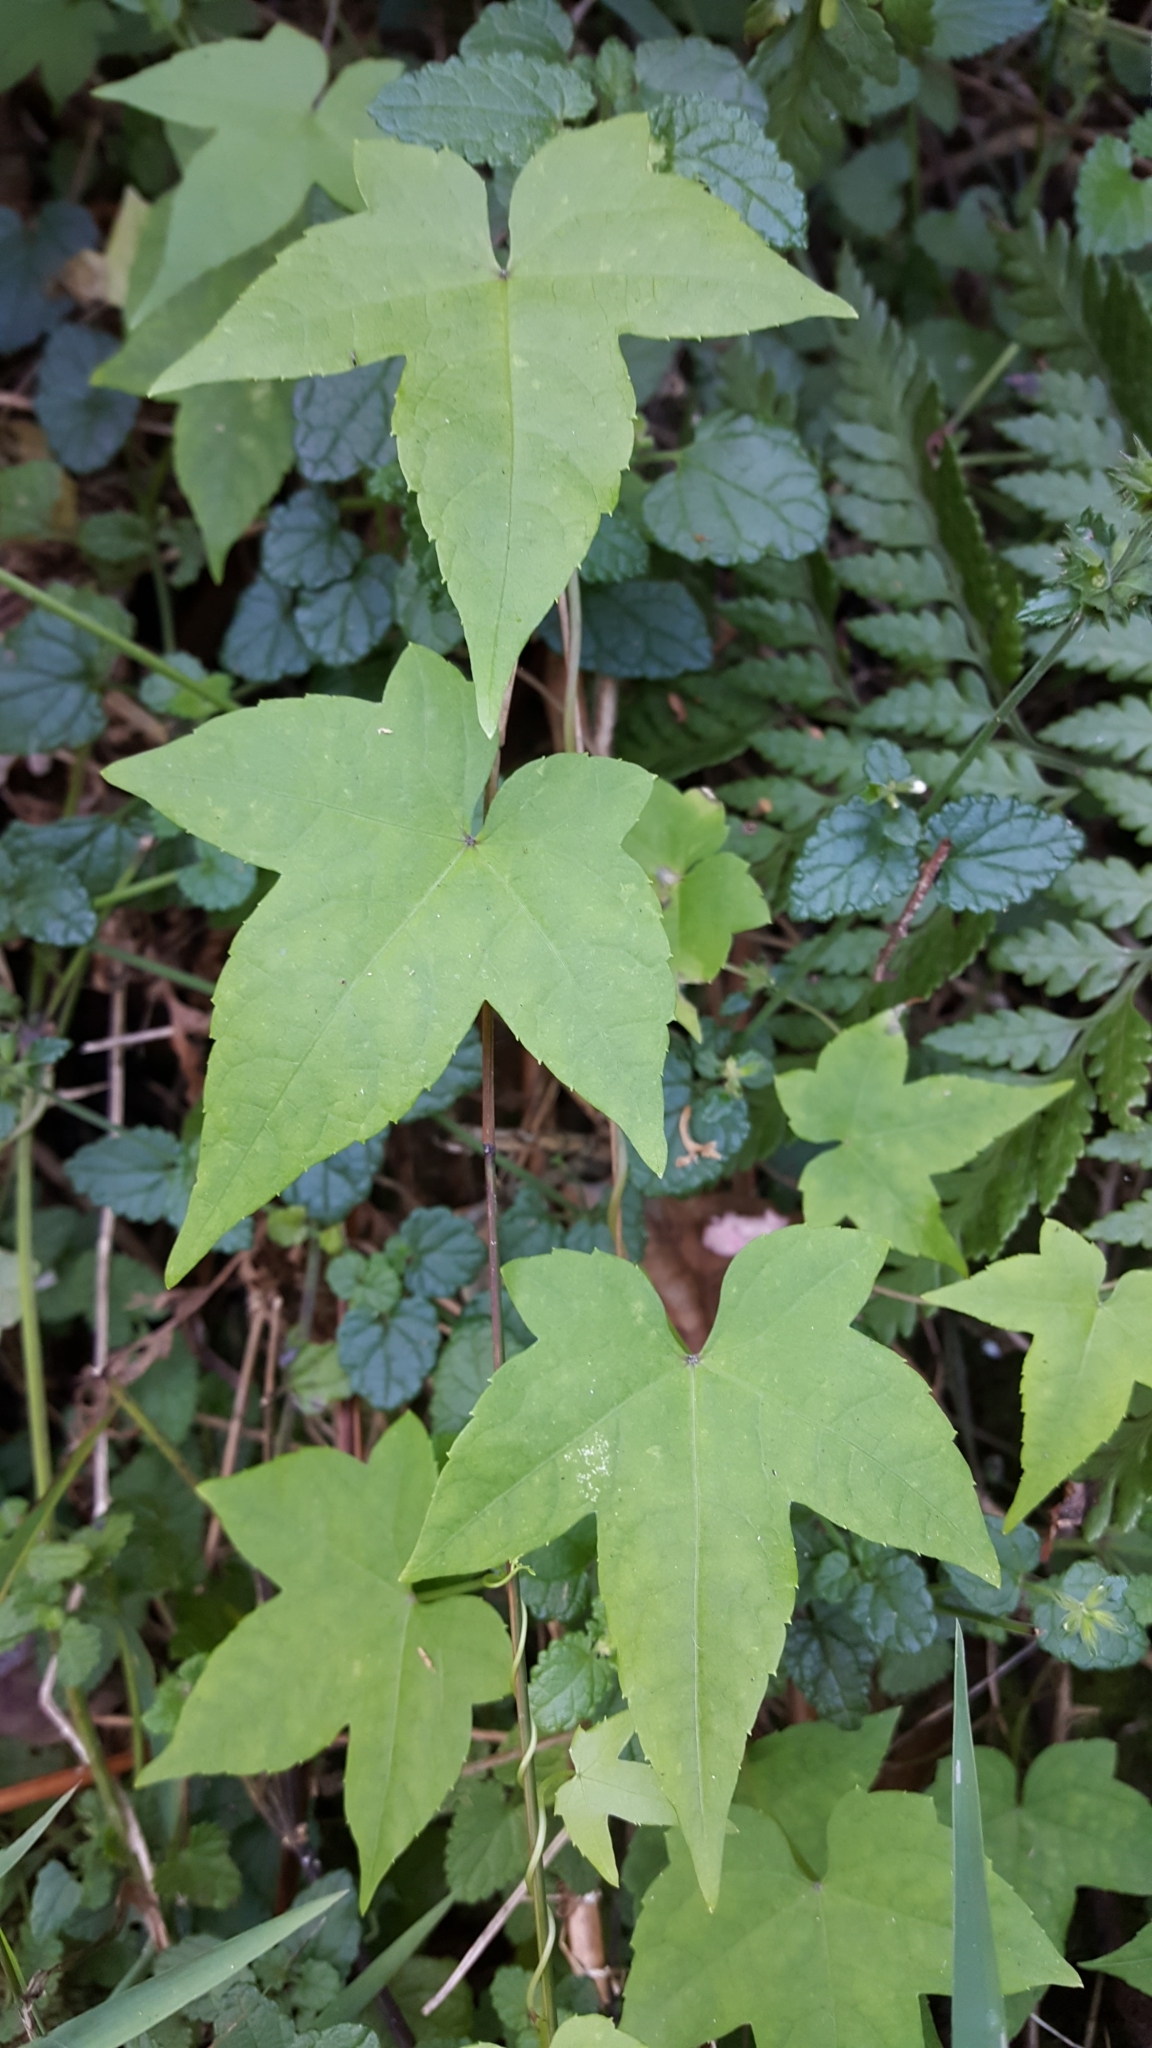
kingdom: Plantae
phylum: Tracheophyta
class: Magnoliopsida
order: Malpighiales
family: Achariaceae
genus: Ceratiosicyos
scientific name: Ceratiosicyos laevis
